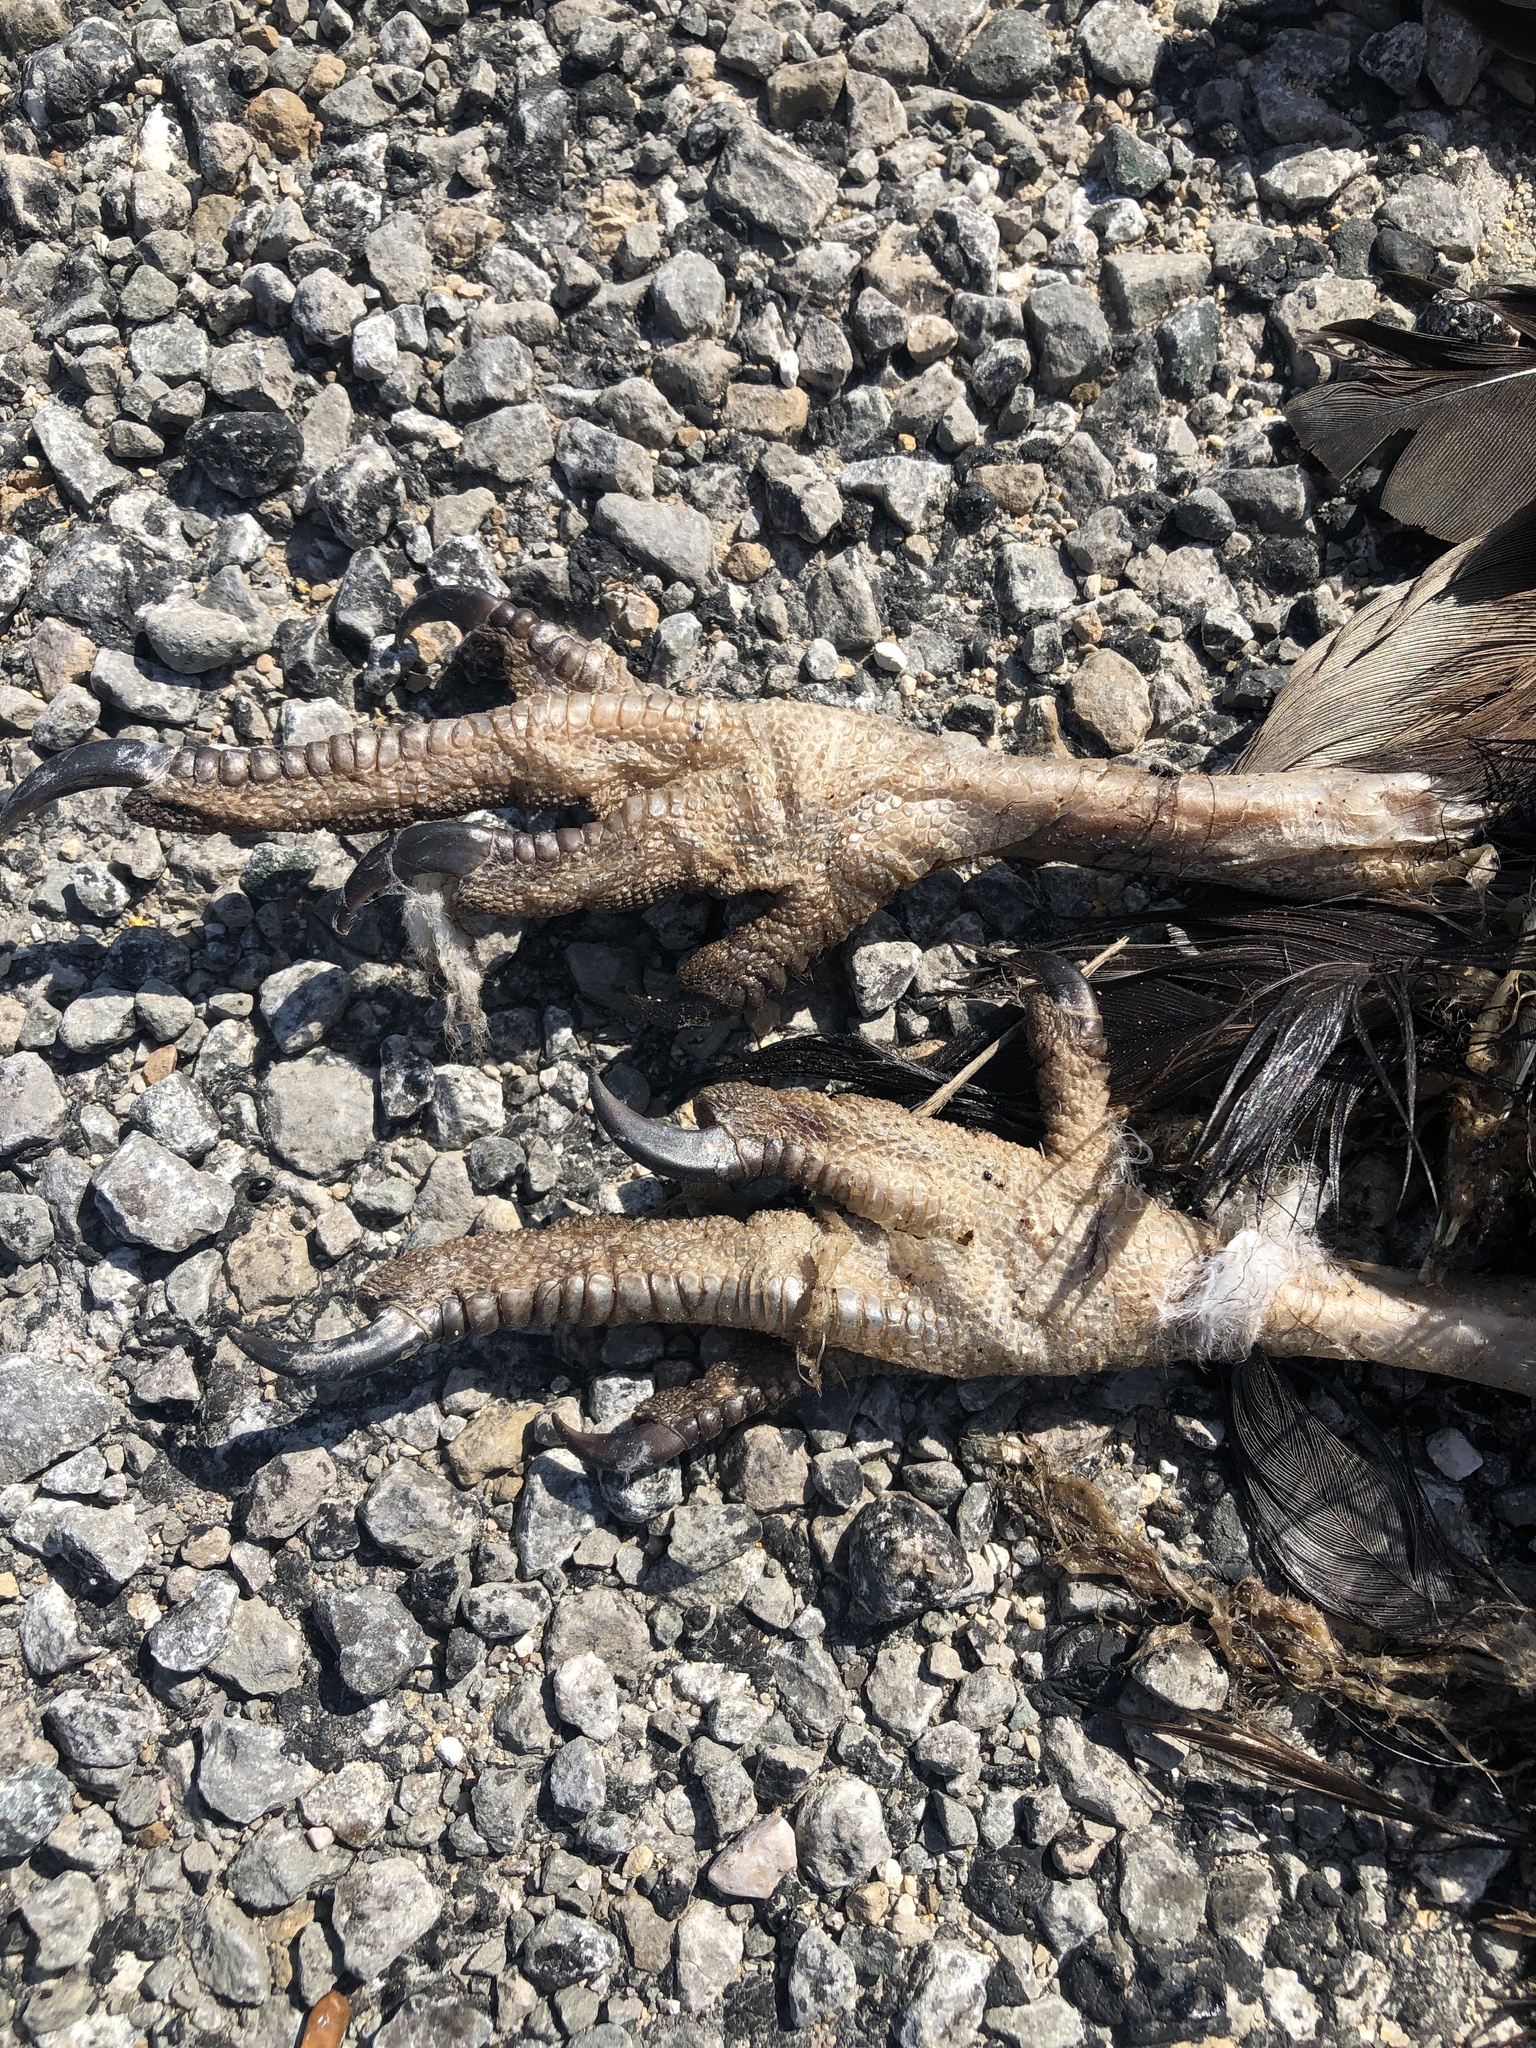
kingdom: Animalia
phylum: Chordata
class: Aves
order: Accipitriformes
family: Cathartidae
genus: Cathartes
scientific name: Cathartes aura
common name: Turkey vulture
